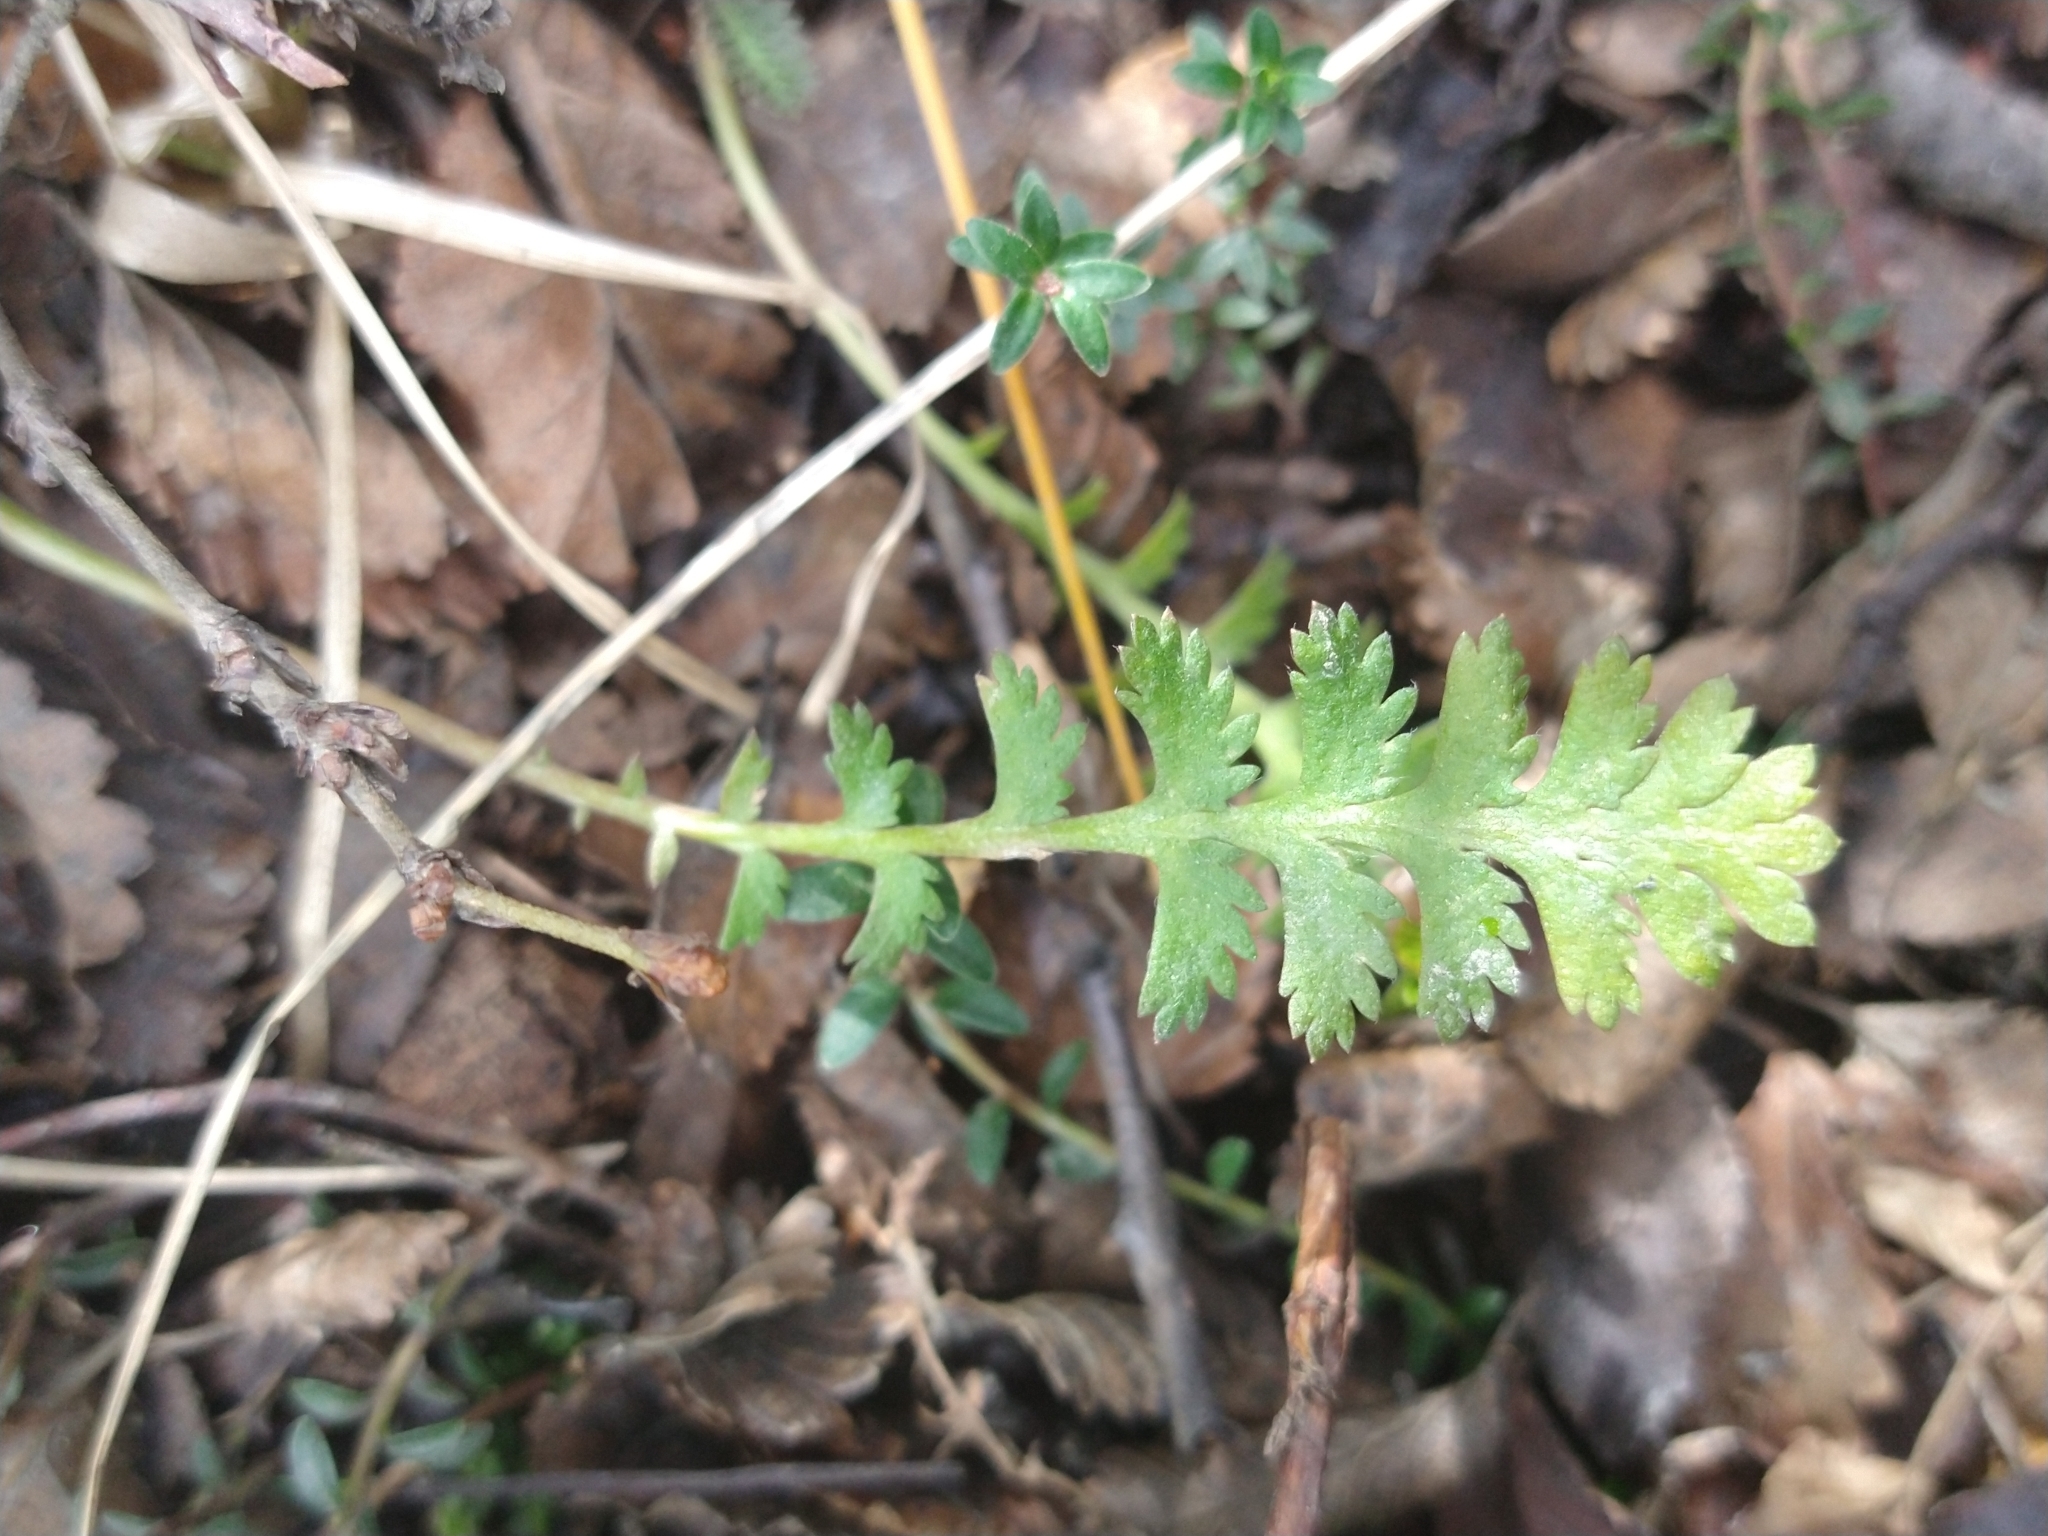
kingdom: Plantae
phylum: Tracheophyta
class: Magnoliopsida
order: Asterales
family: Asteraceae
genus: Leptinella
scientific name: Leptinella scariosa
